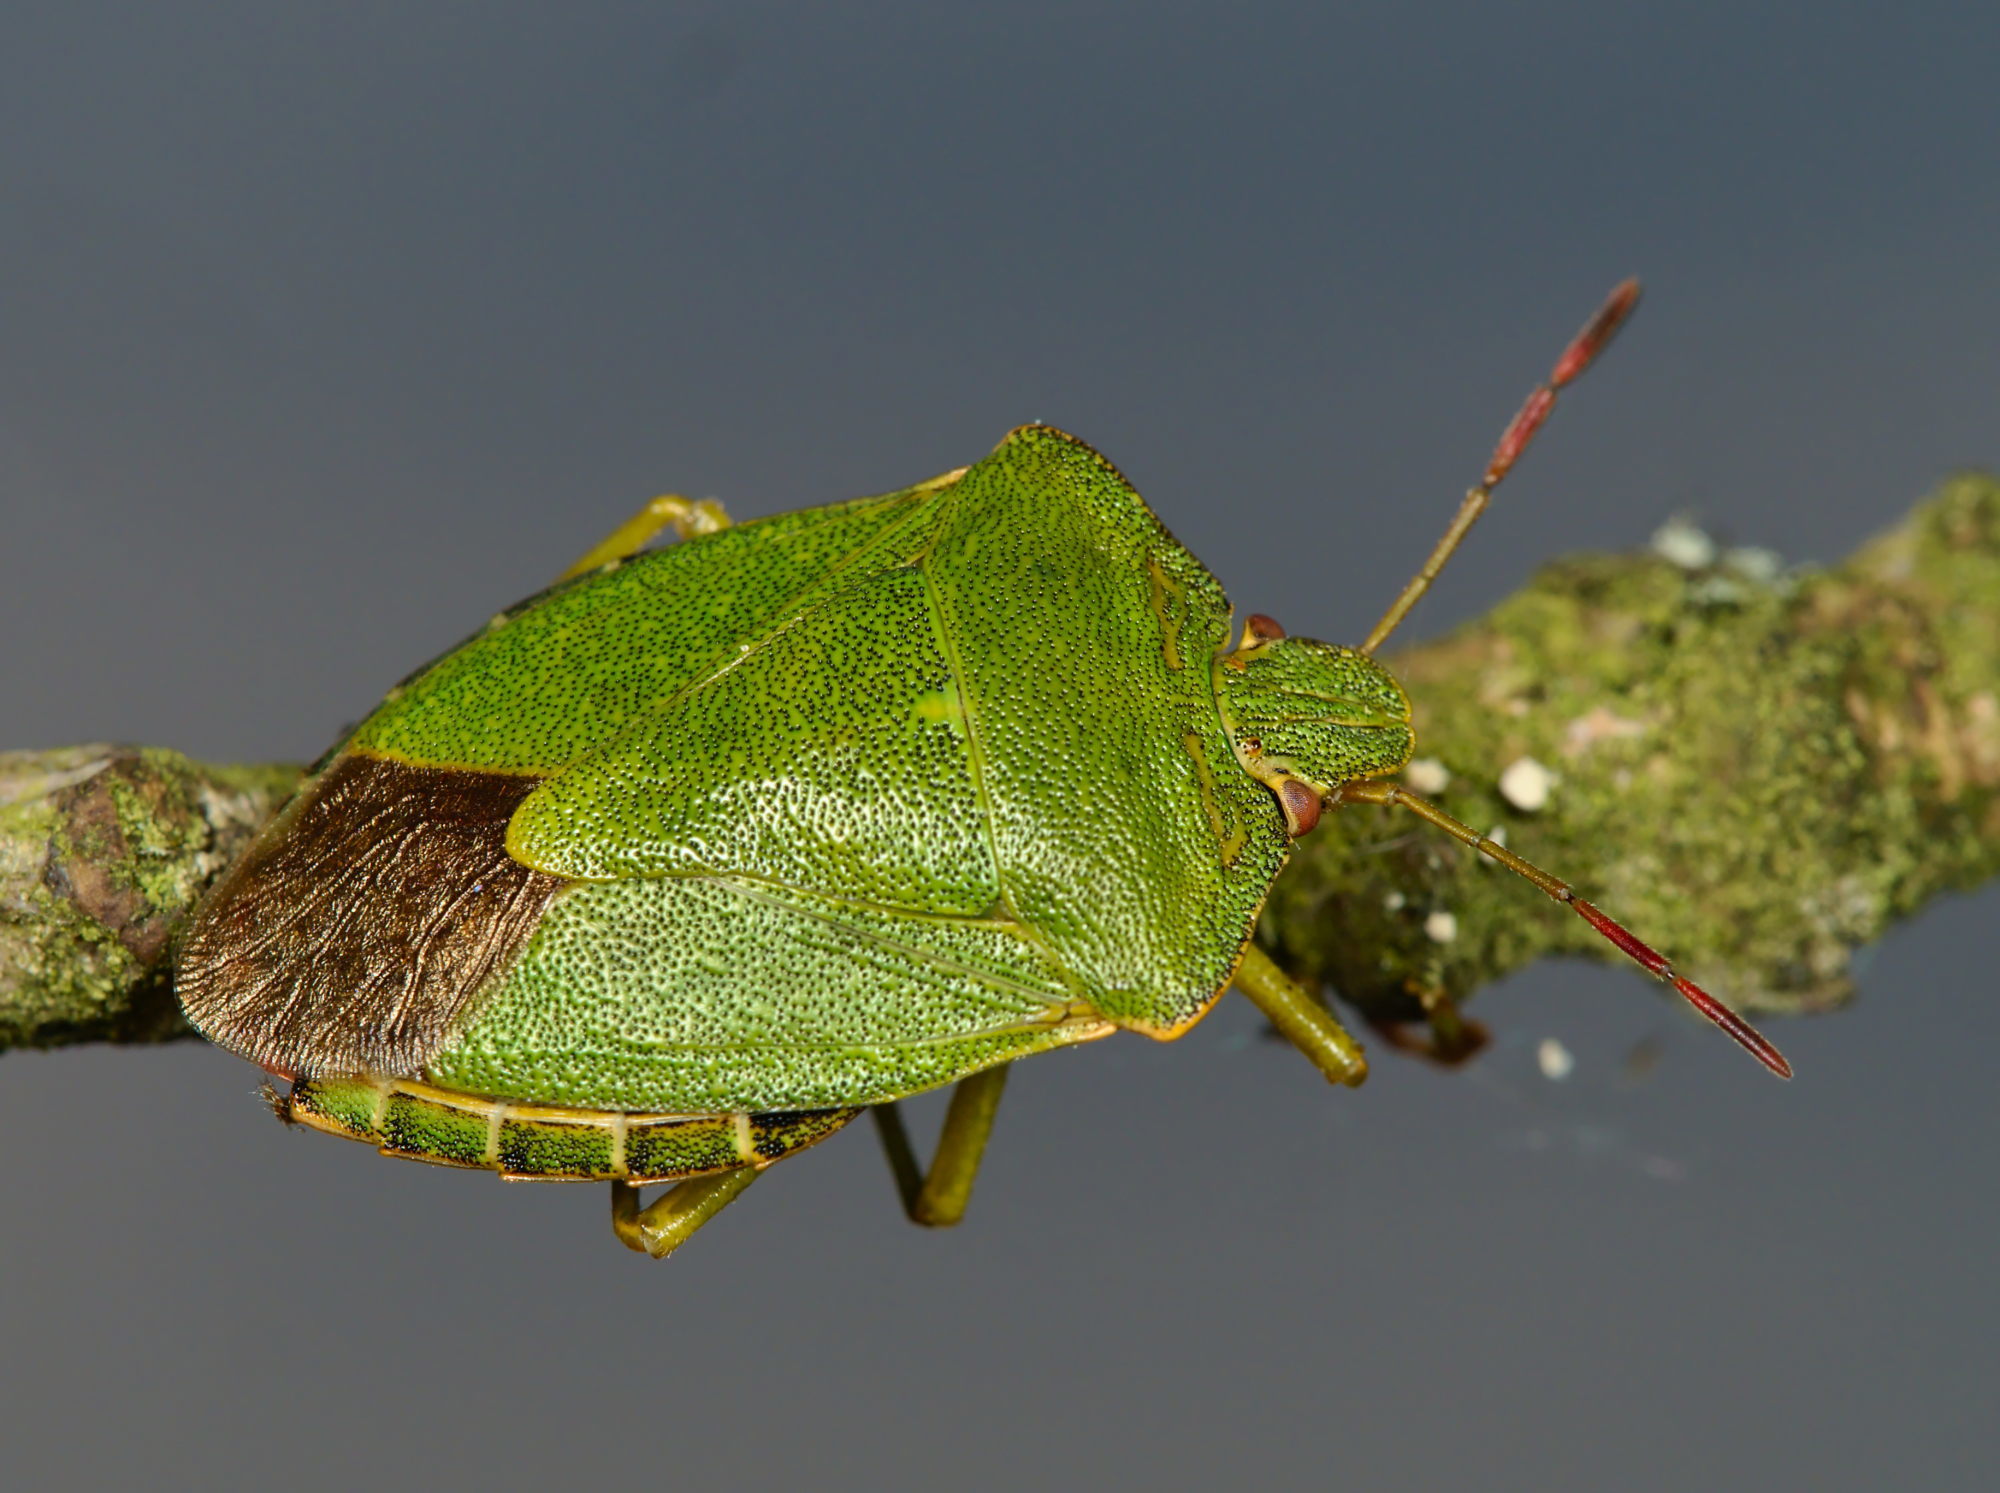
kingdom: Animalia
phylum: Arthropoda
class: Insecta
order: Hemiptera
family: Pentatomidae
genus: Palomena
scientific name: Palomena prasina
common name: Green shieldbug
